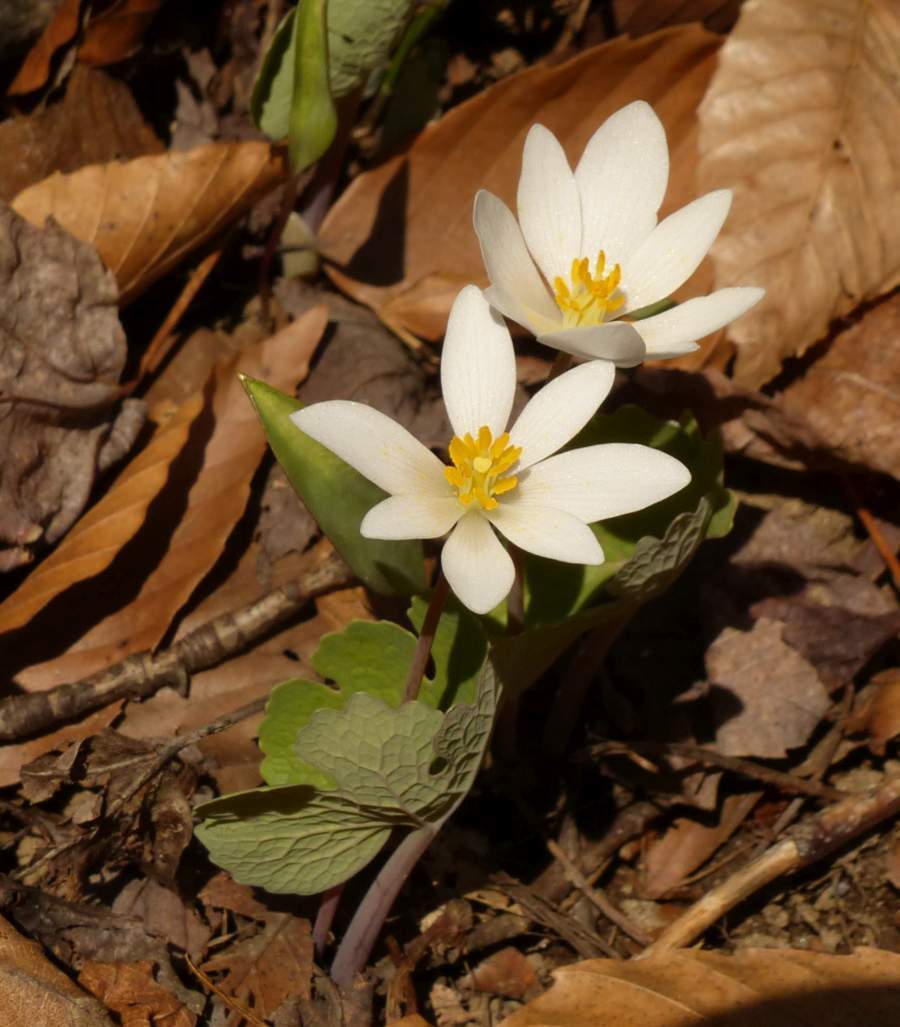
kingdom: Plantae
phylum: Tracheophyta
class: Magnoliopsida
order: Ranunculales
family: Papaveraceae
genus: Sanguinaria
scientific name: Sanguinaria canadensis
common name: Bloodroot
